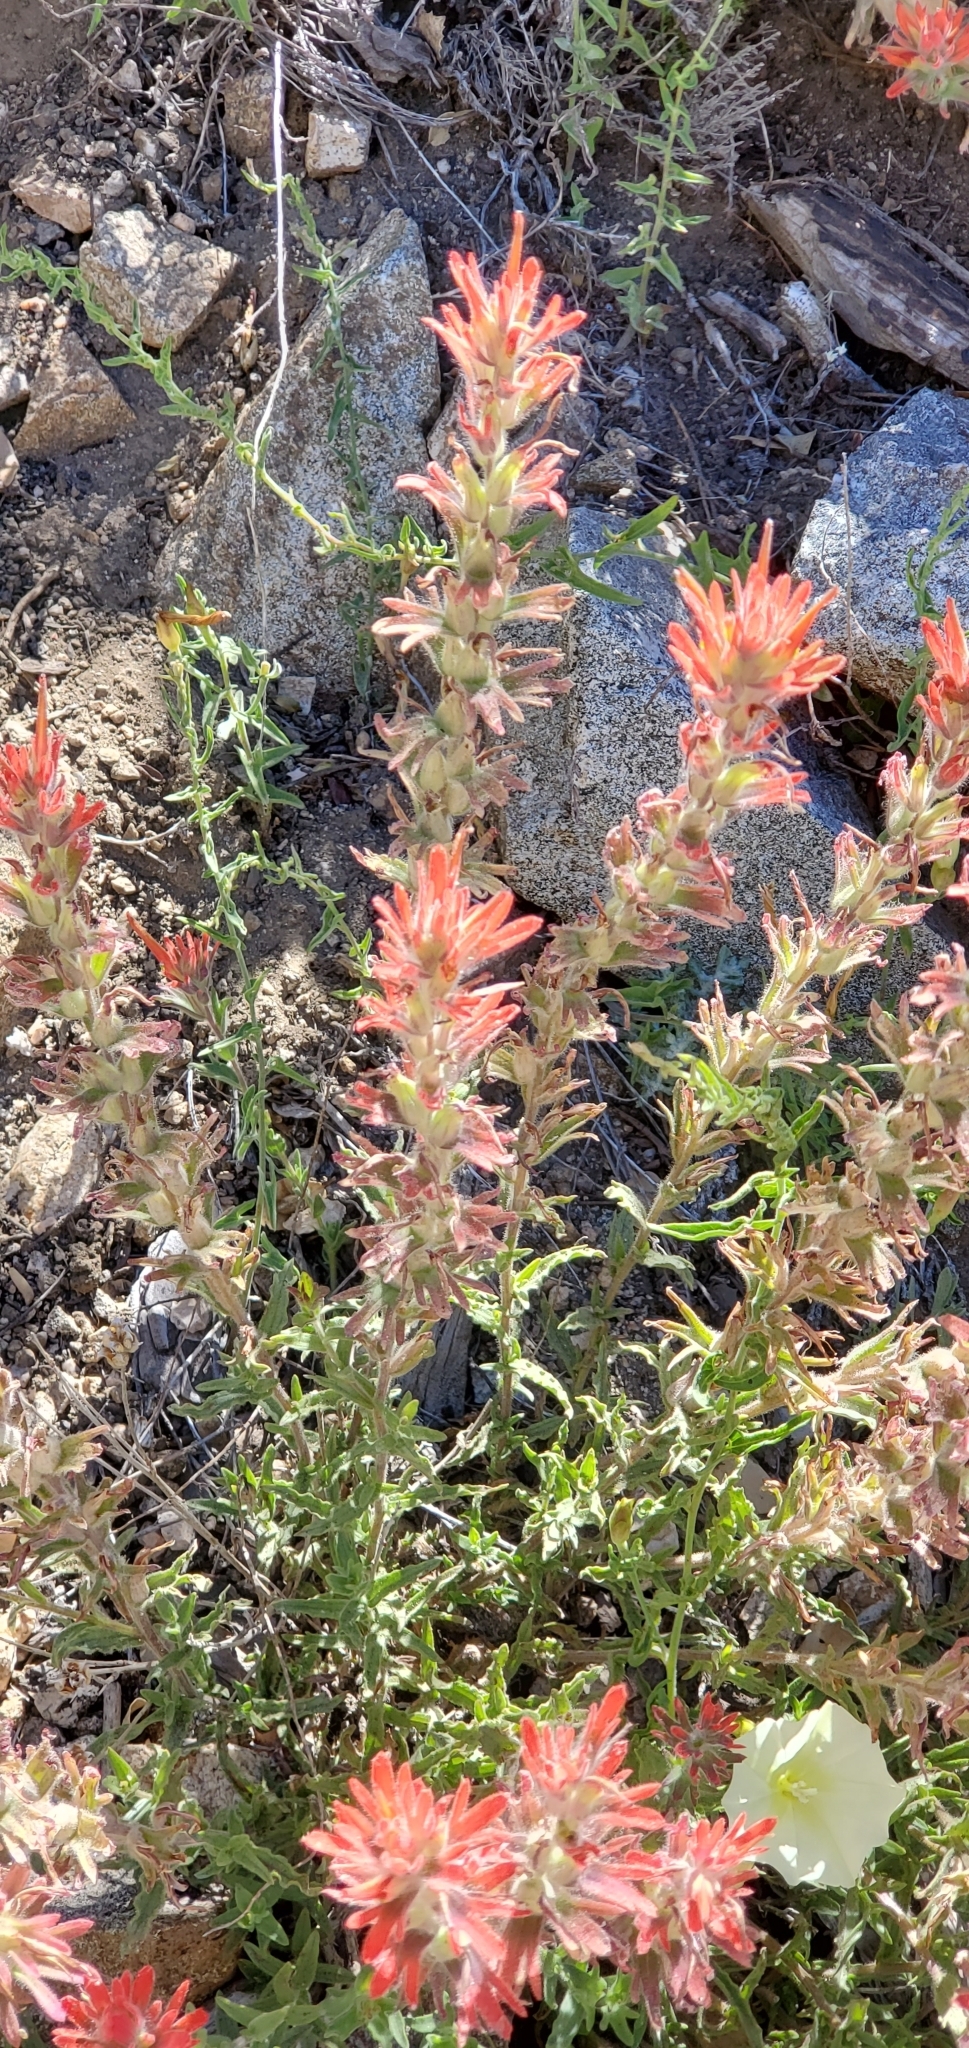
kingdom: Plantae
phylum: Tracheophyta
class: Magnoliopsida
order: Lamiales
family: Orobanchaceae
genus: Castilleja
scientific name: Castilleja applegatei
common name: Wavy-leaf paintbrush
